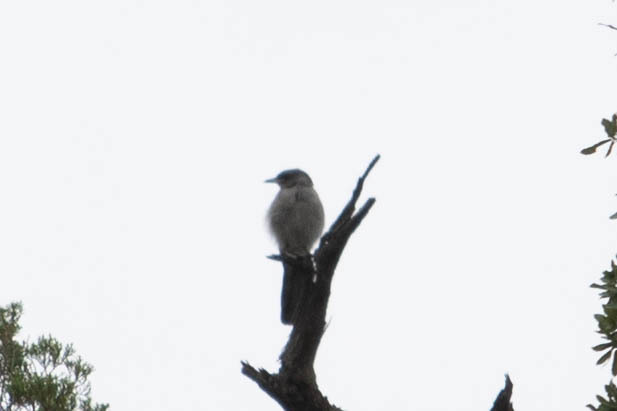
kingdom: Animalia
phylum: Chordata
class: Aves
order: Passeriformes
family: Corvidae
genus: Aphelocoma
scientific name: Aphelocoma wollweberi
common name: Mexican jay
